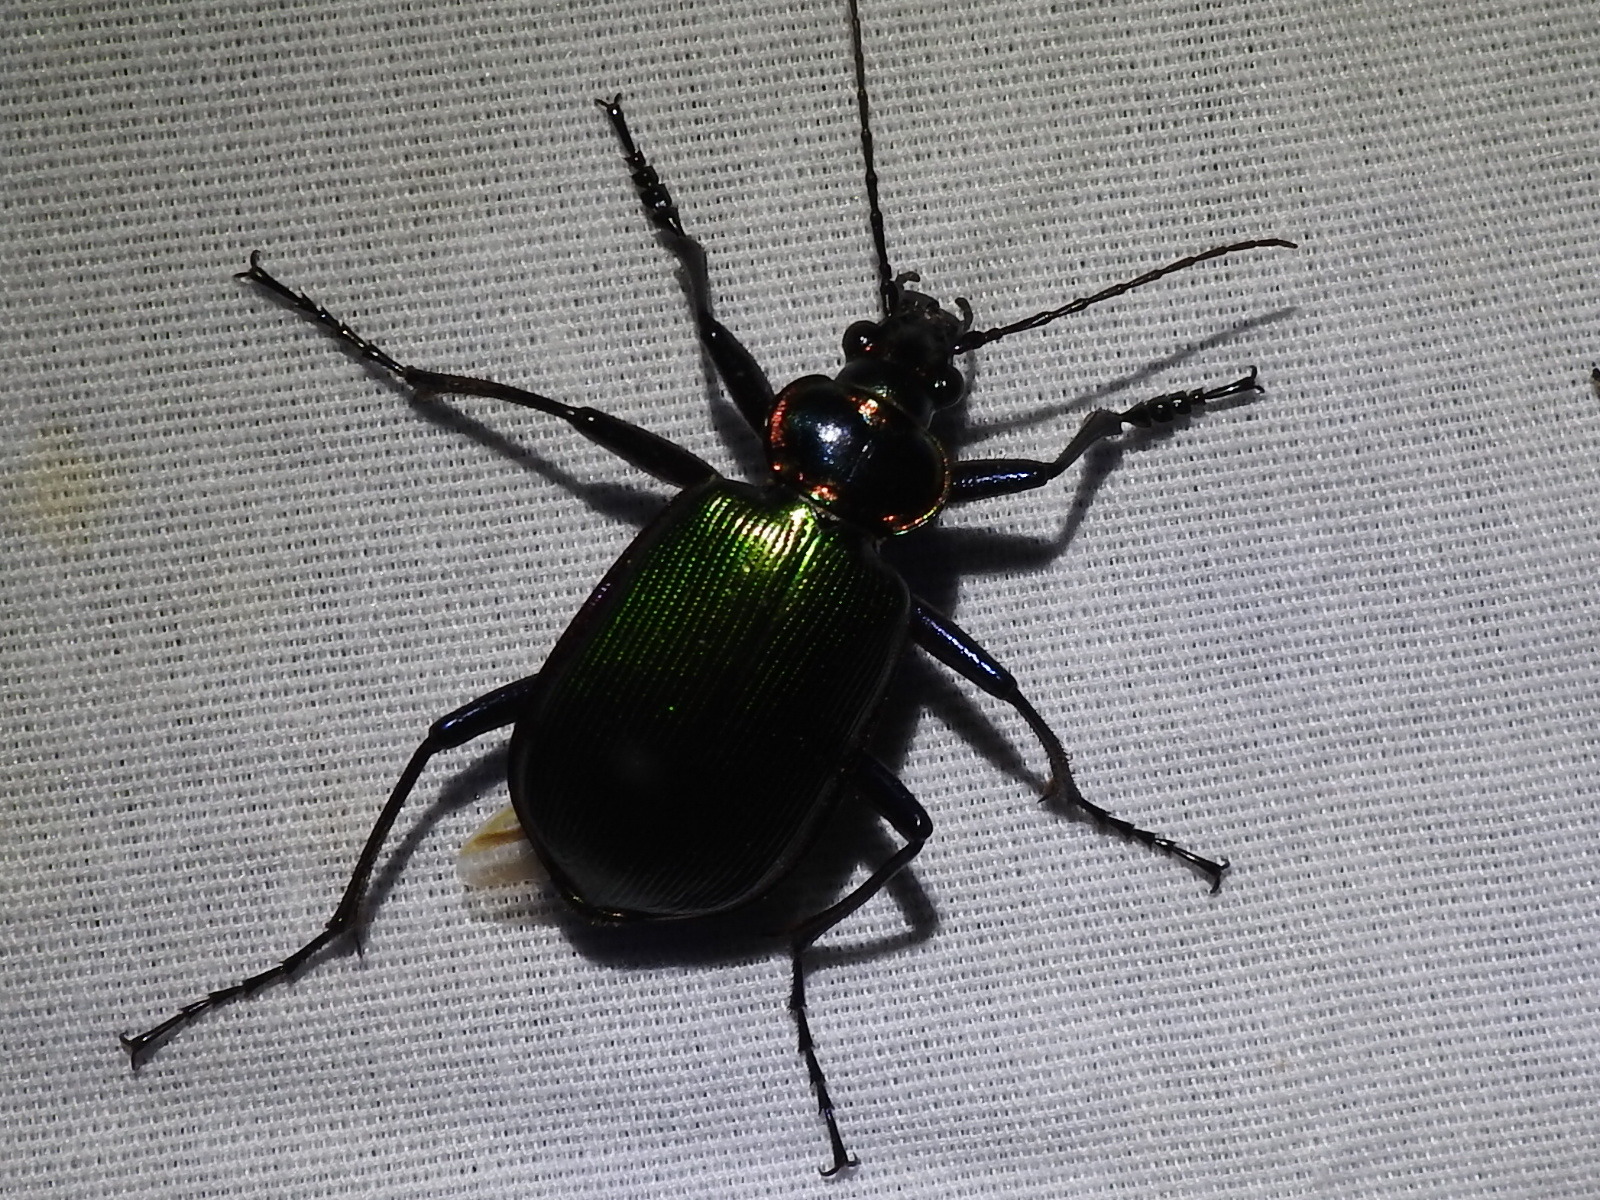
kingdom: Animalia
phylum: Arthropoda
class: Insecta
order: Coleoptera
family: Carabidae
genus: Calosoma
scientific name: Calosoma scrutator
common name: Fiery searcher beetle
